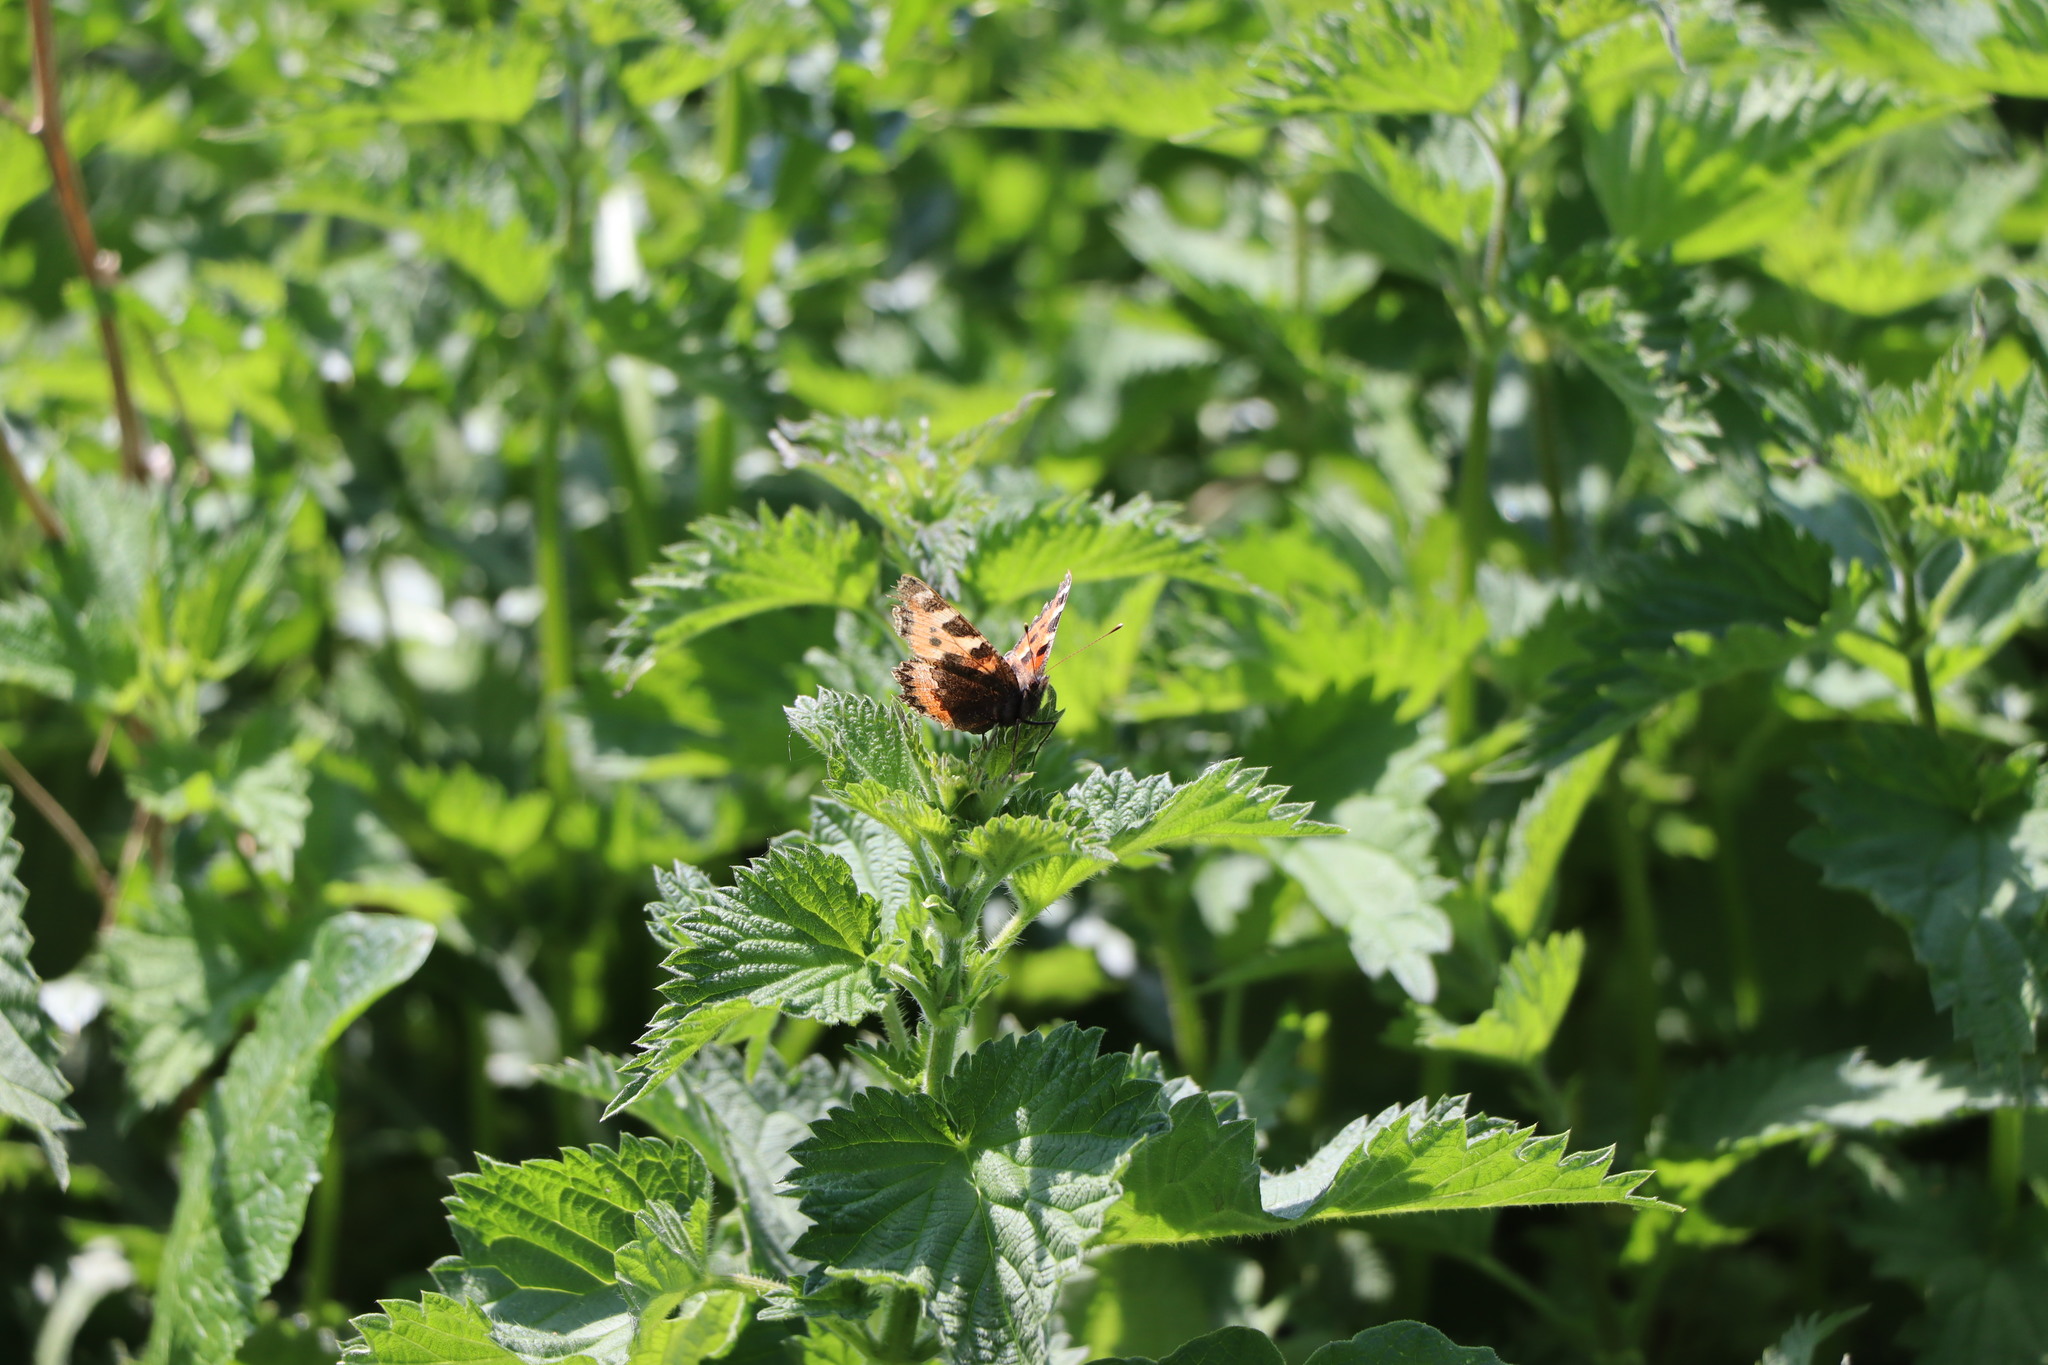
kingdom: Animalia
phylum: Arthropoda
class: Insecta
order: Lepidoptera
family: Nymphalidae
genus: Aglais
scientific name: Aglais urticae
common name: Small tortoiseshell
